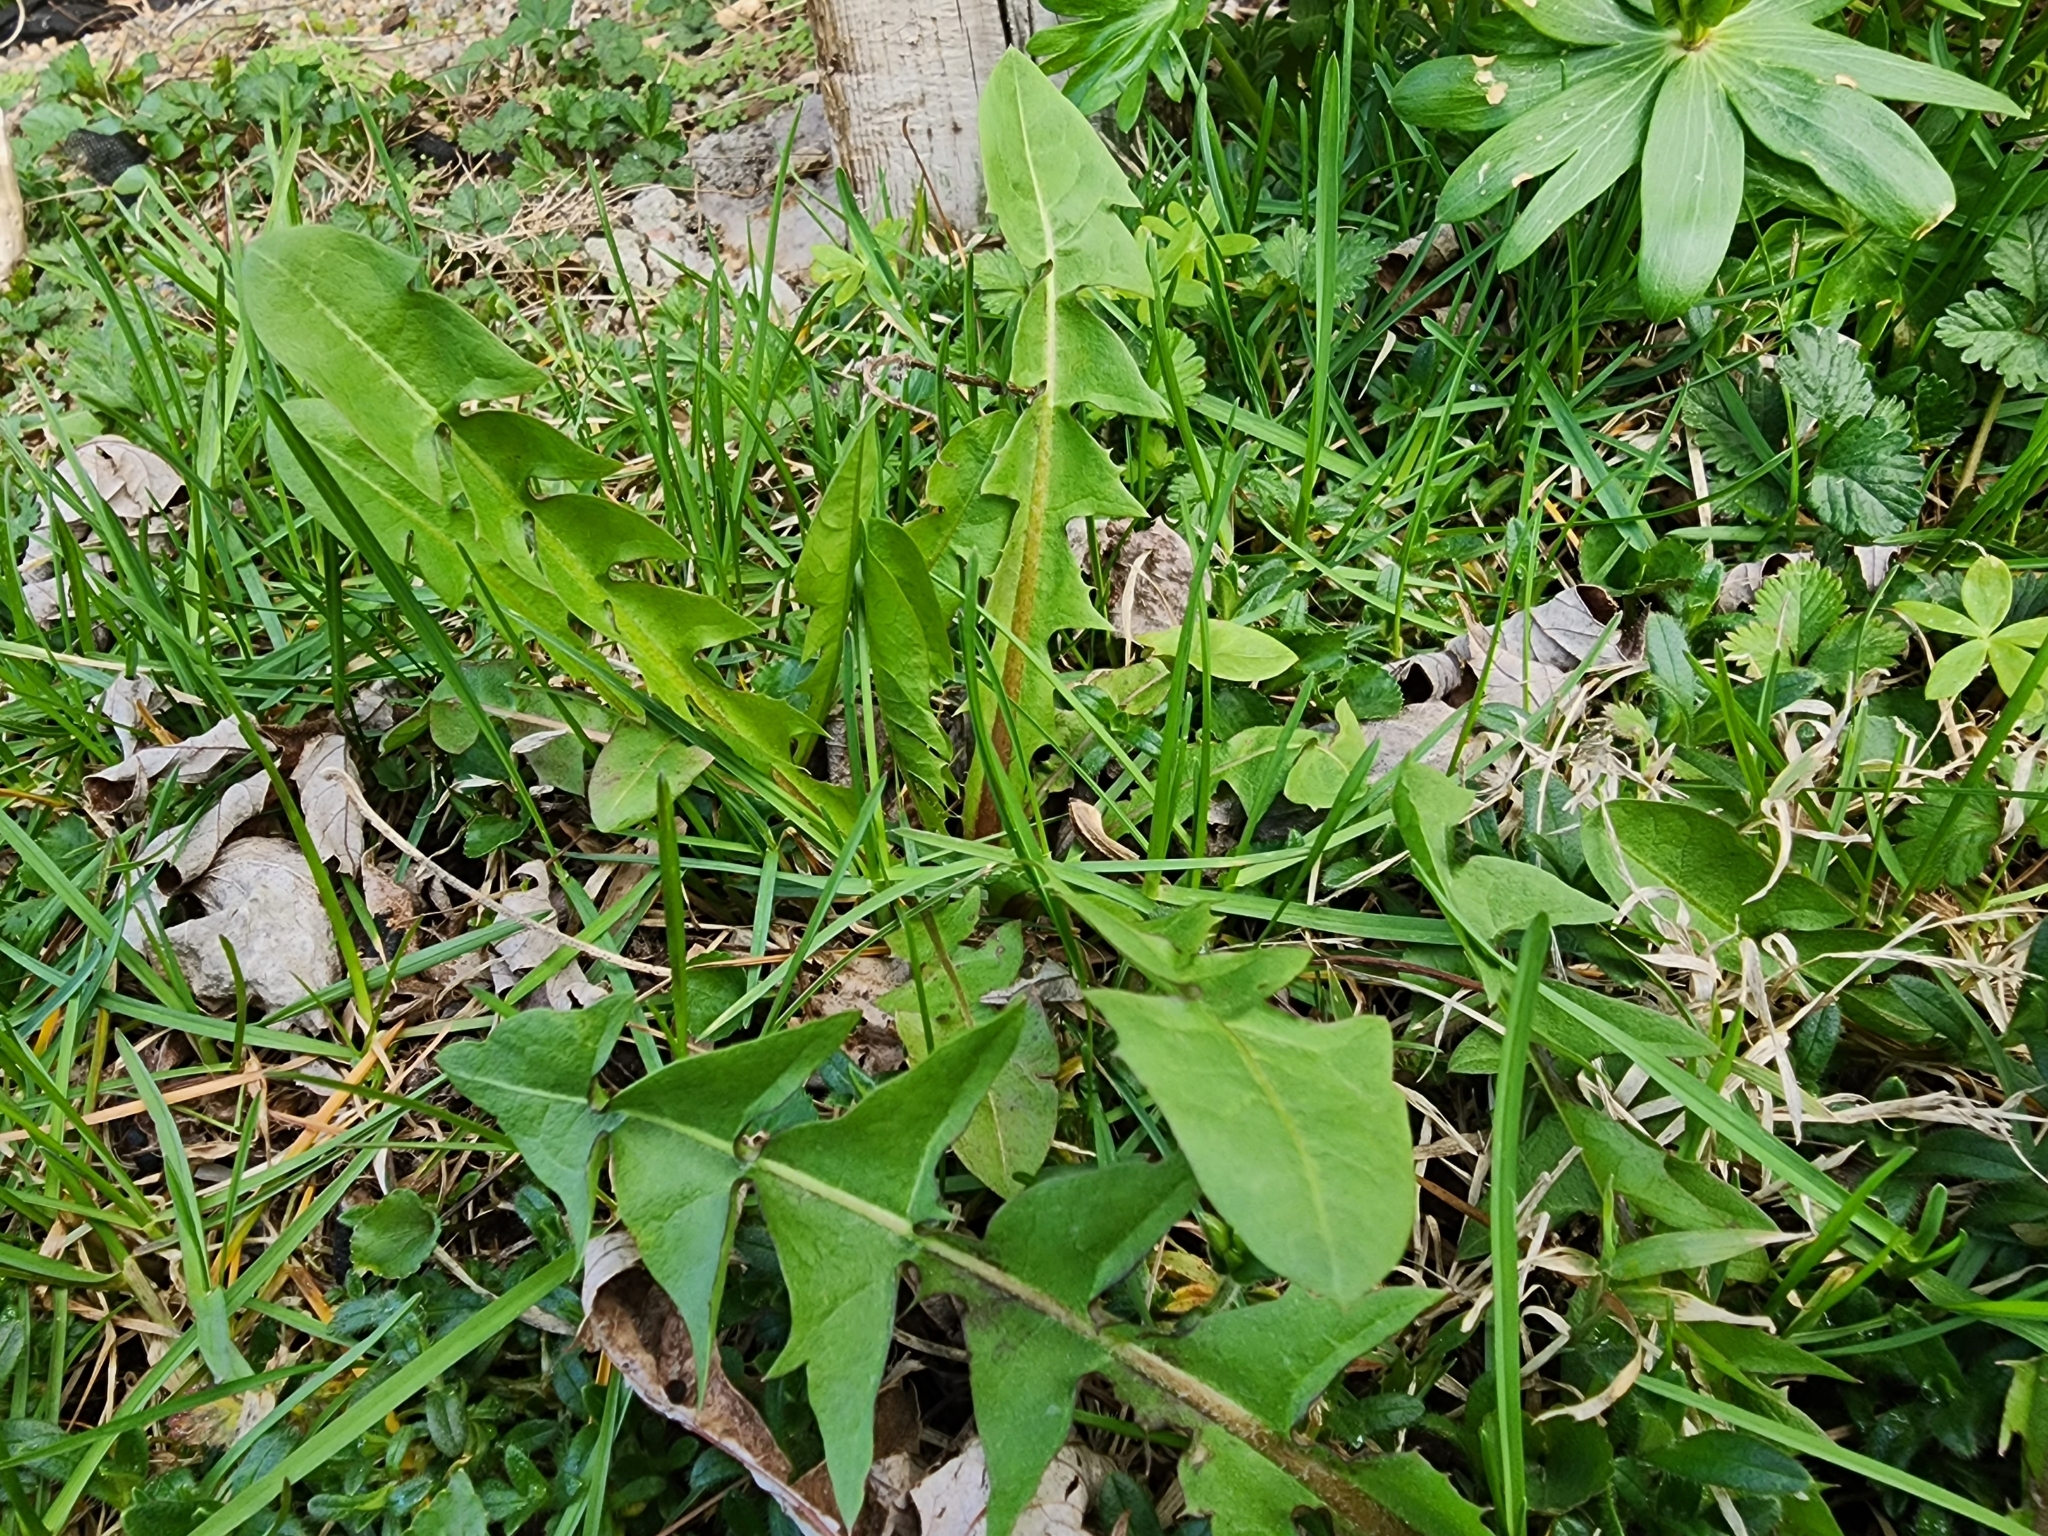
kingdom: Plantae
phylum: Tracheophyta
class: Magnoliopsida
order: Asterales
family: Asteraceae
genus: Taraxacum
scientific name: Taraxacum officinale
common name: Common dandelion
